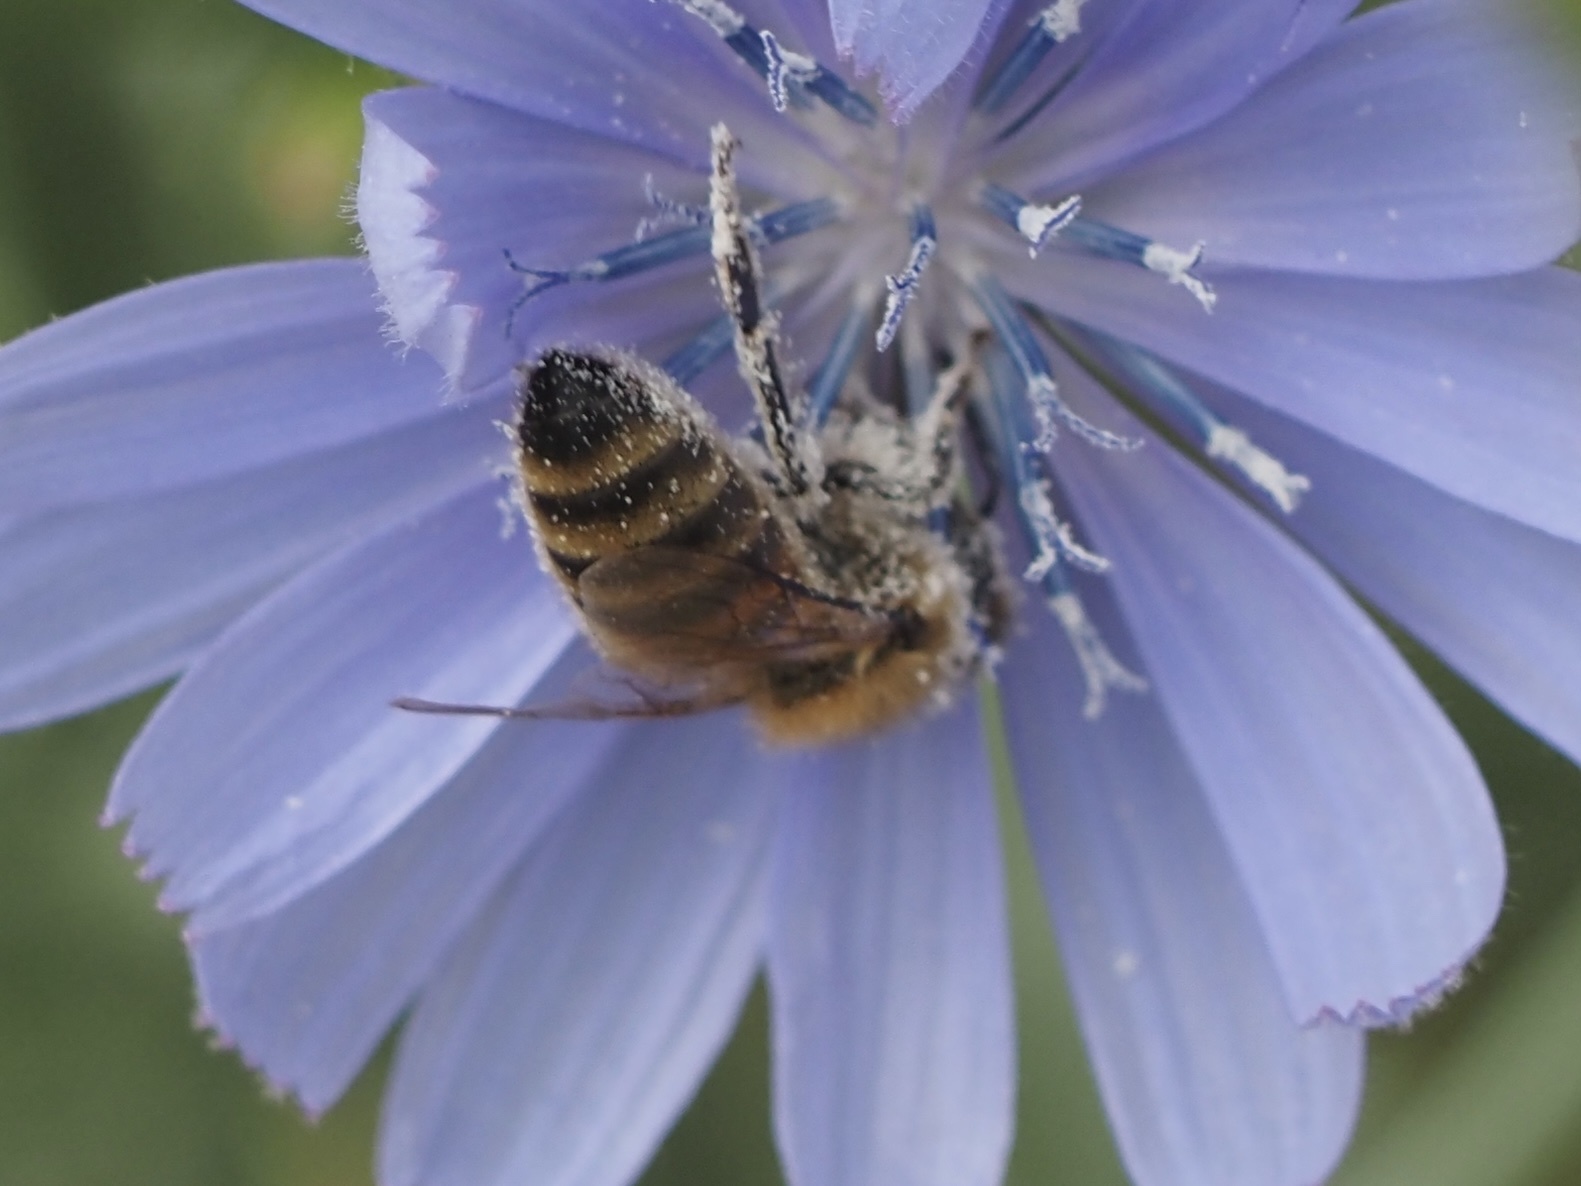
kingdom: Animalia
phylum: Arthropoda
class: Insecta
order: Hymenoptera
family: Apidae
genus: Apis
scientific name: Apis mellifera
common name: Honey bee
